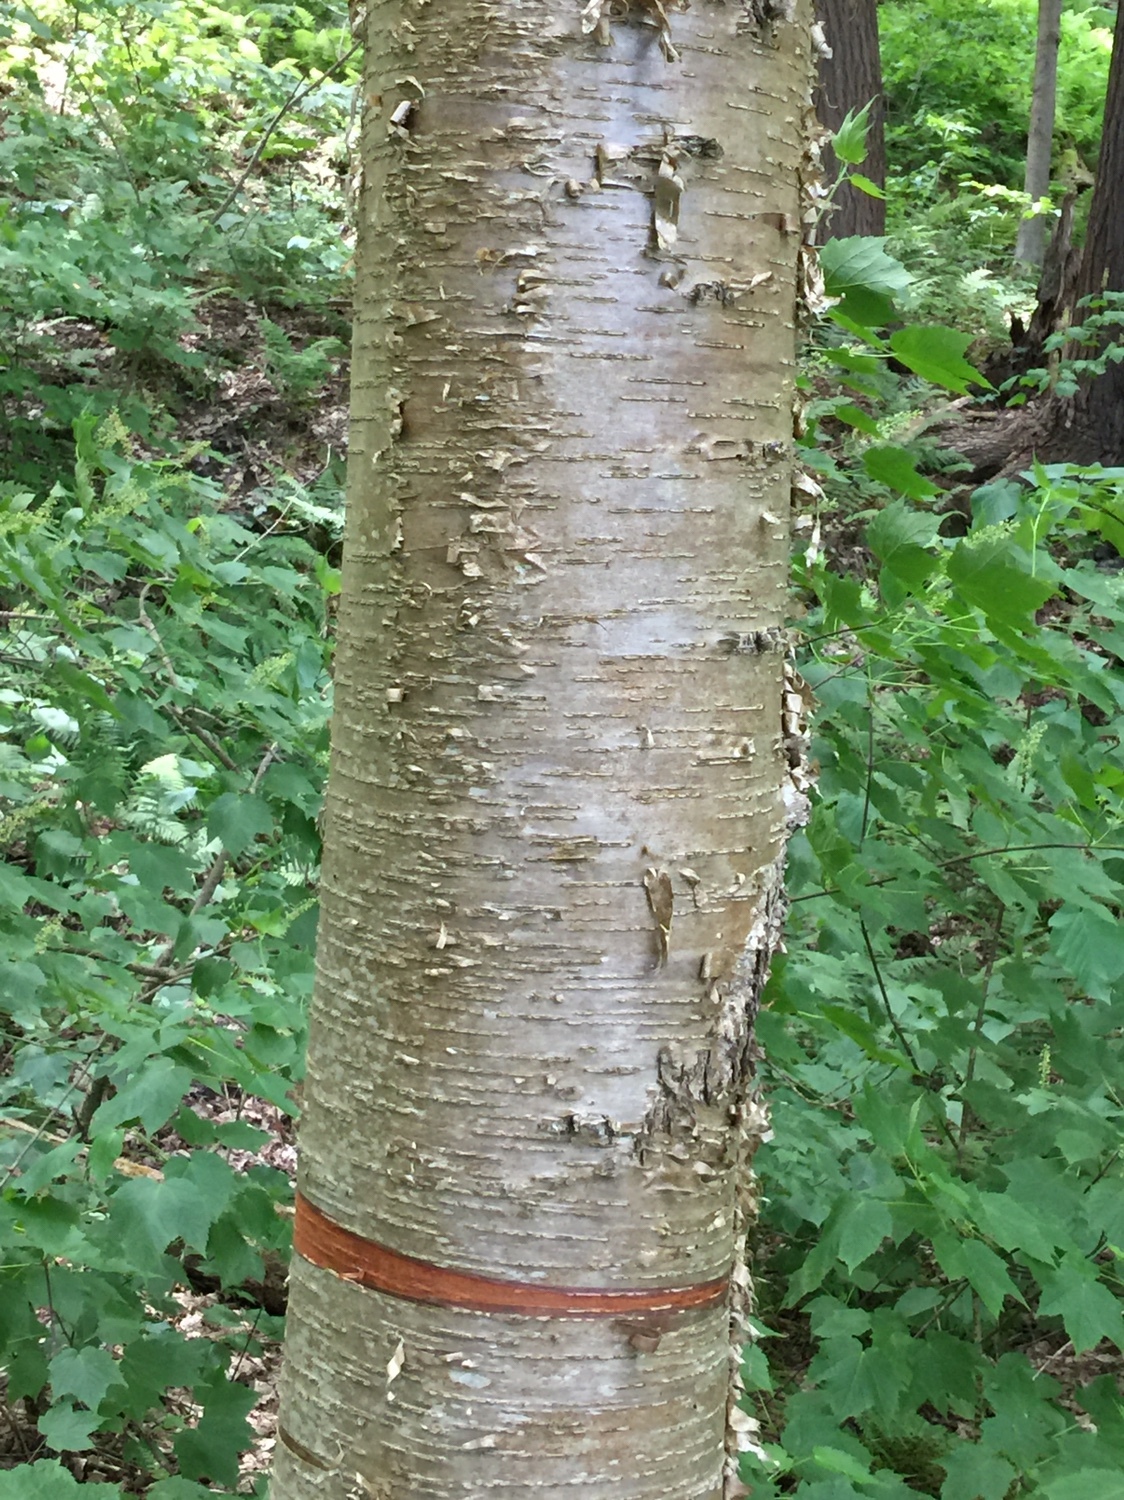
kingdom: Plantae
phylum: Tracheophyta
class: Magnoliopsida
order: Fagales
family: Betulaceae
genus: Betula
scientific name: Betula alleghaniensis
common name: Yellow birch
